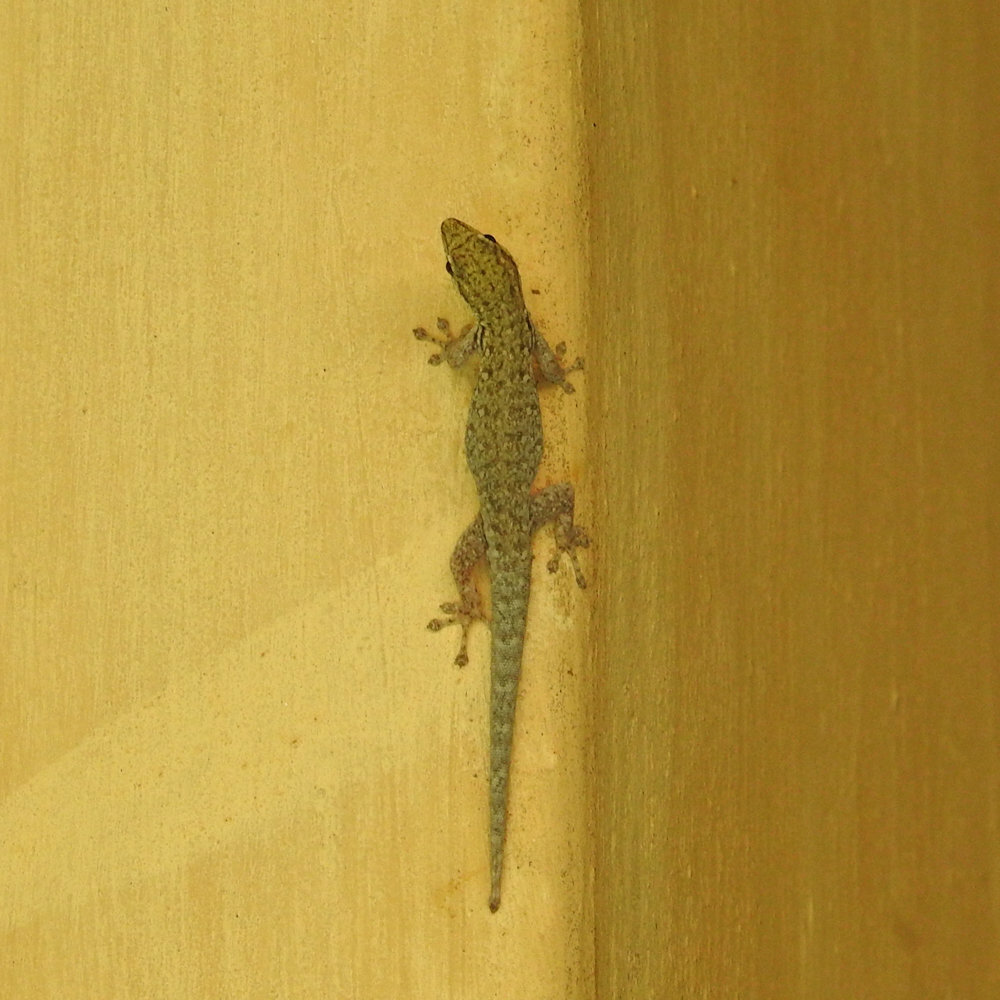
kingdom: Animalia
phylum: Chordata
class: Squamata
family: Gekkonidae
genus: Lygodactylus
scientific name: Lygodactylus chobiensis
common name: Okavango dwarf gecko
